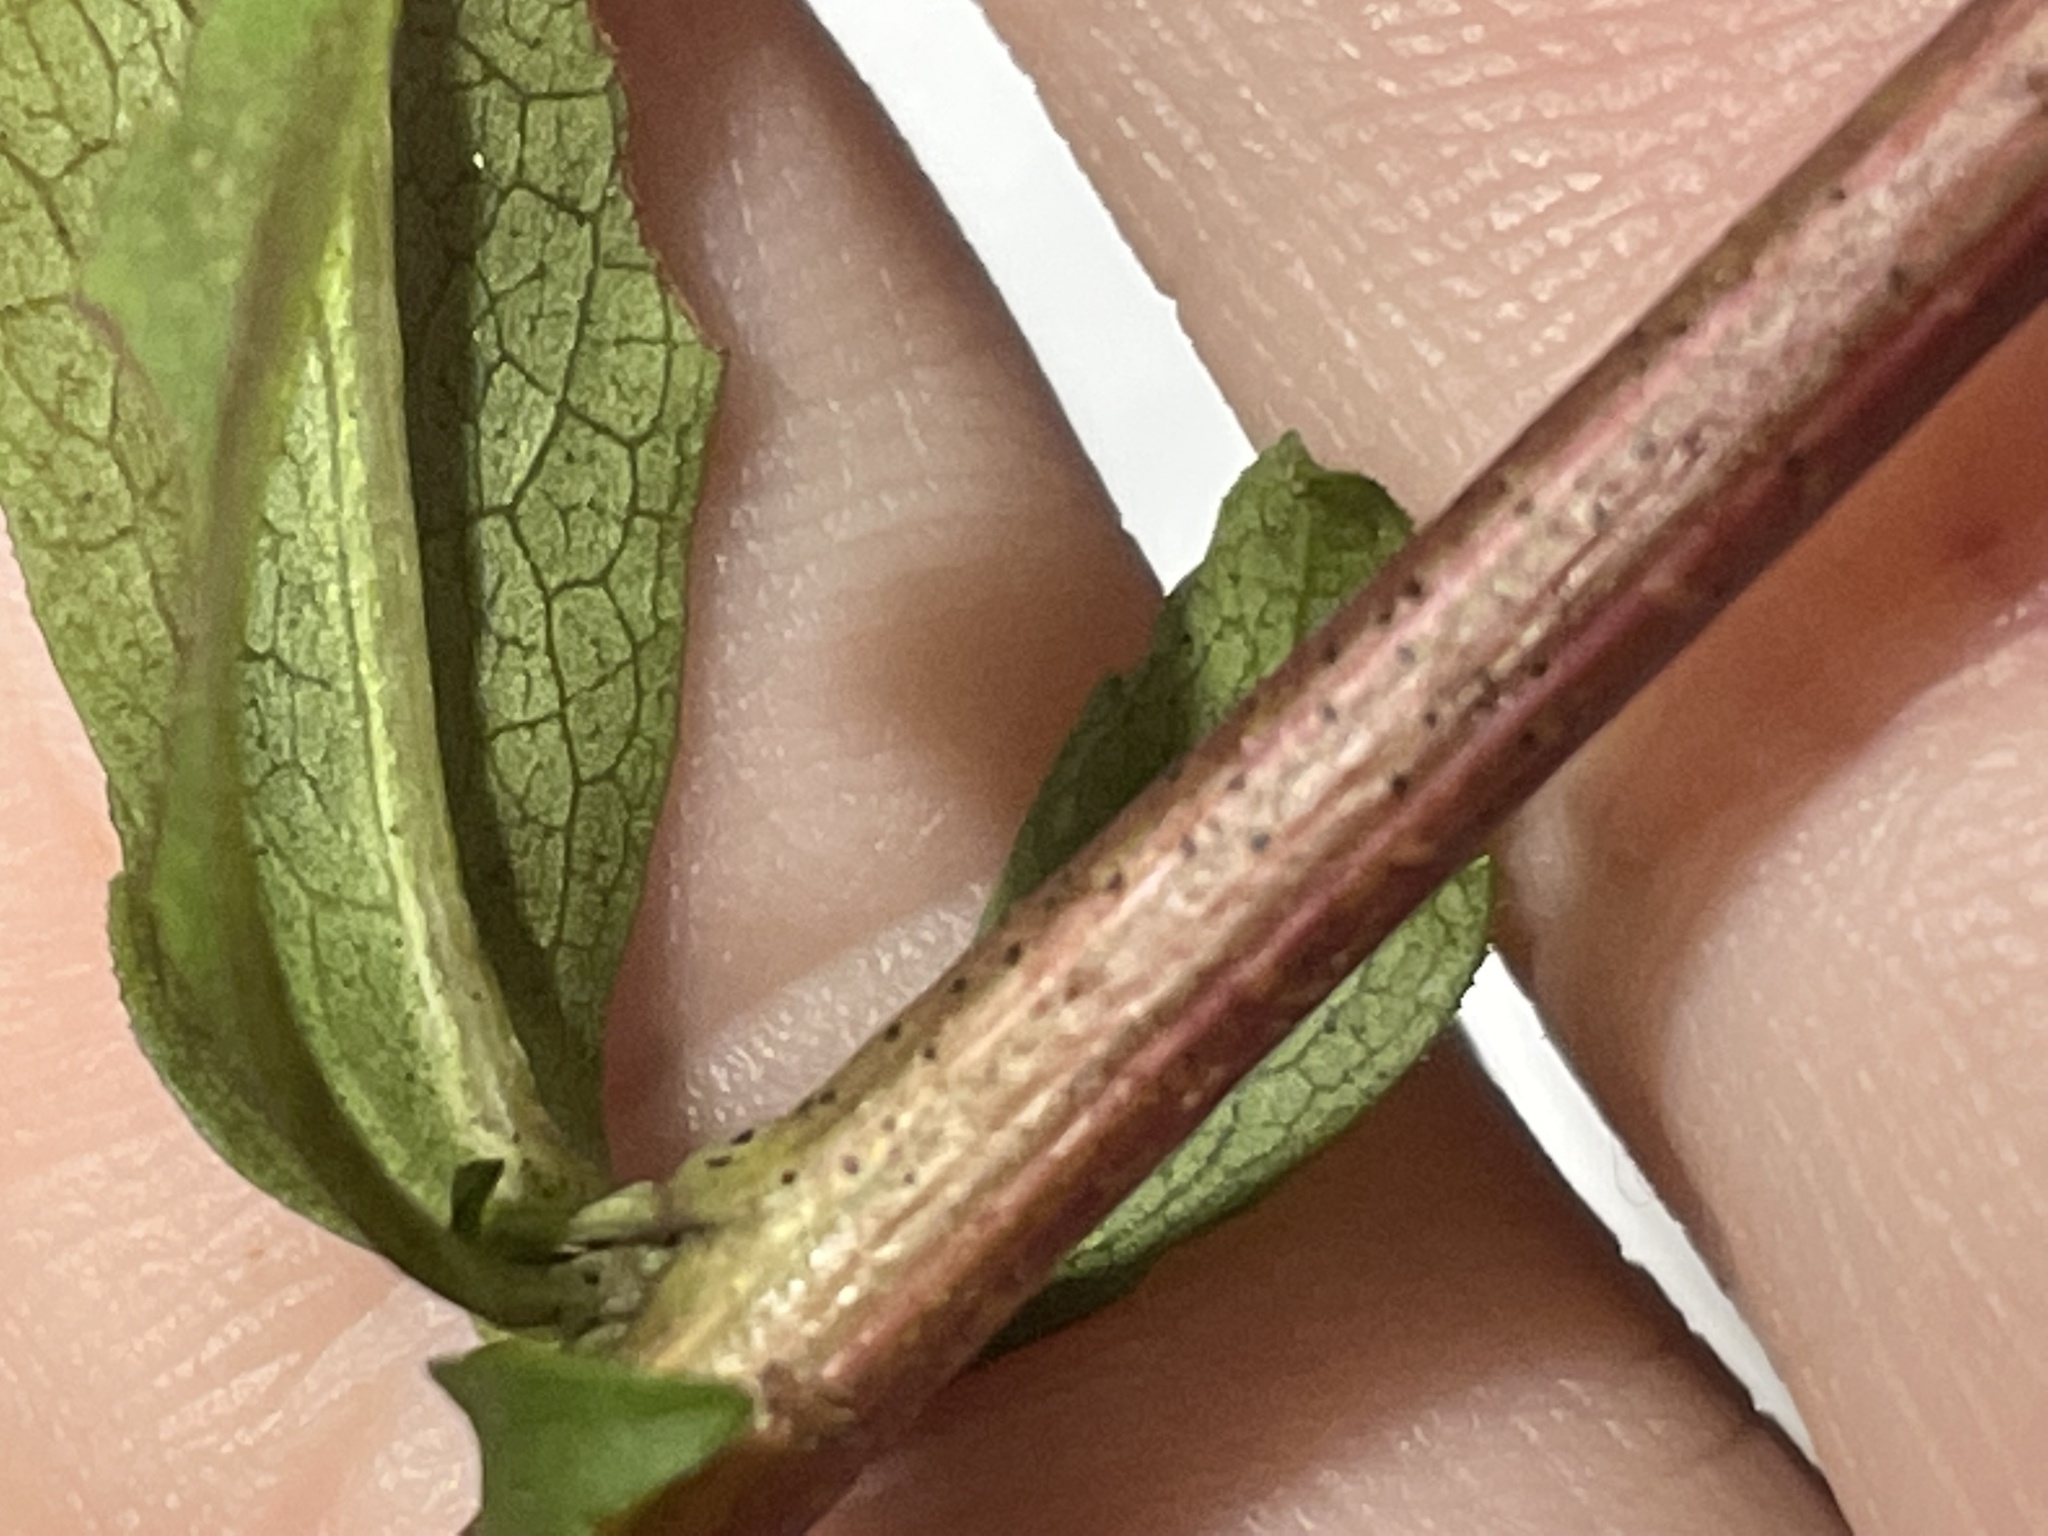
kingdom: Plantae
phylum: Tracheophyta
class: Magnoliopsida
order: Asterales
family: Asteraceae
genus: Solidago
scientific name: Solidago erecta
